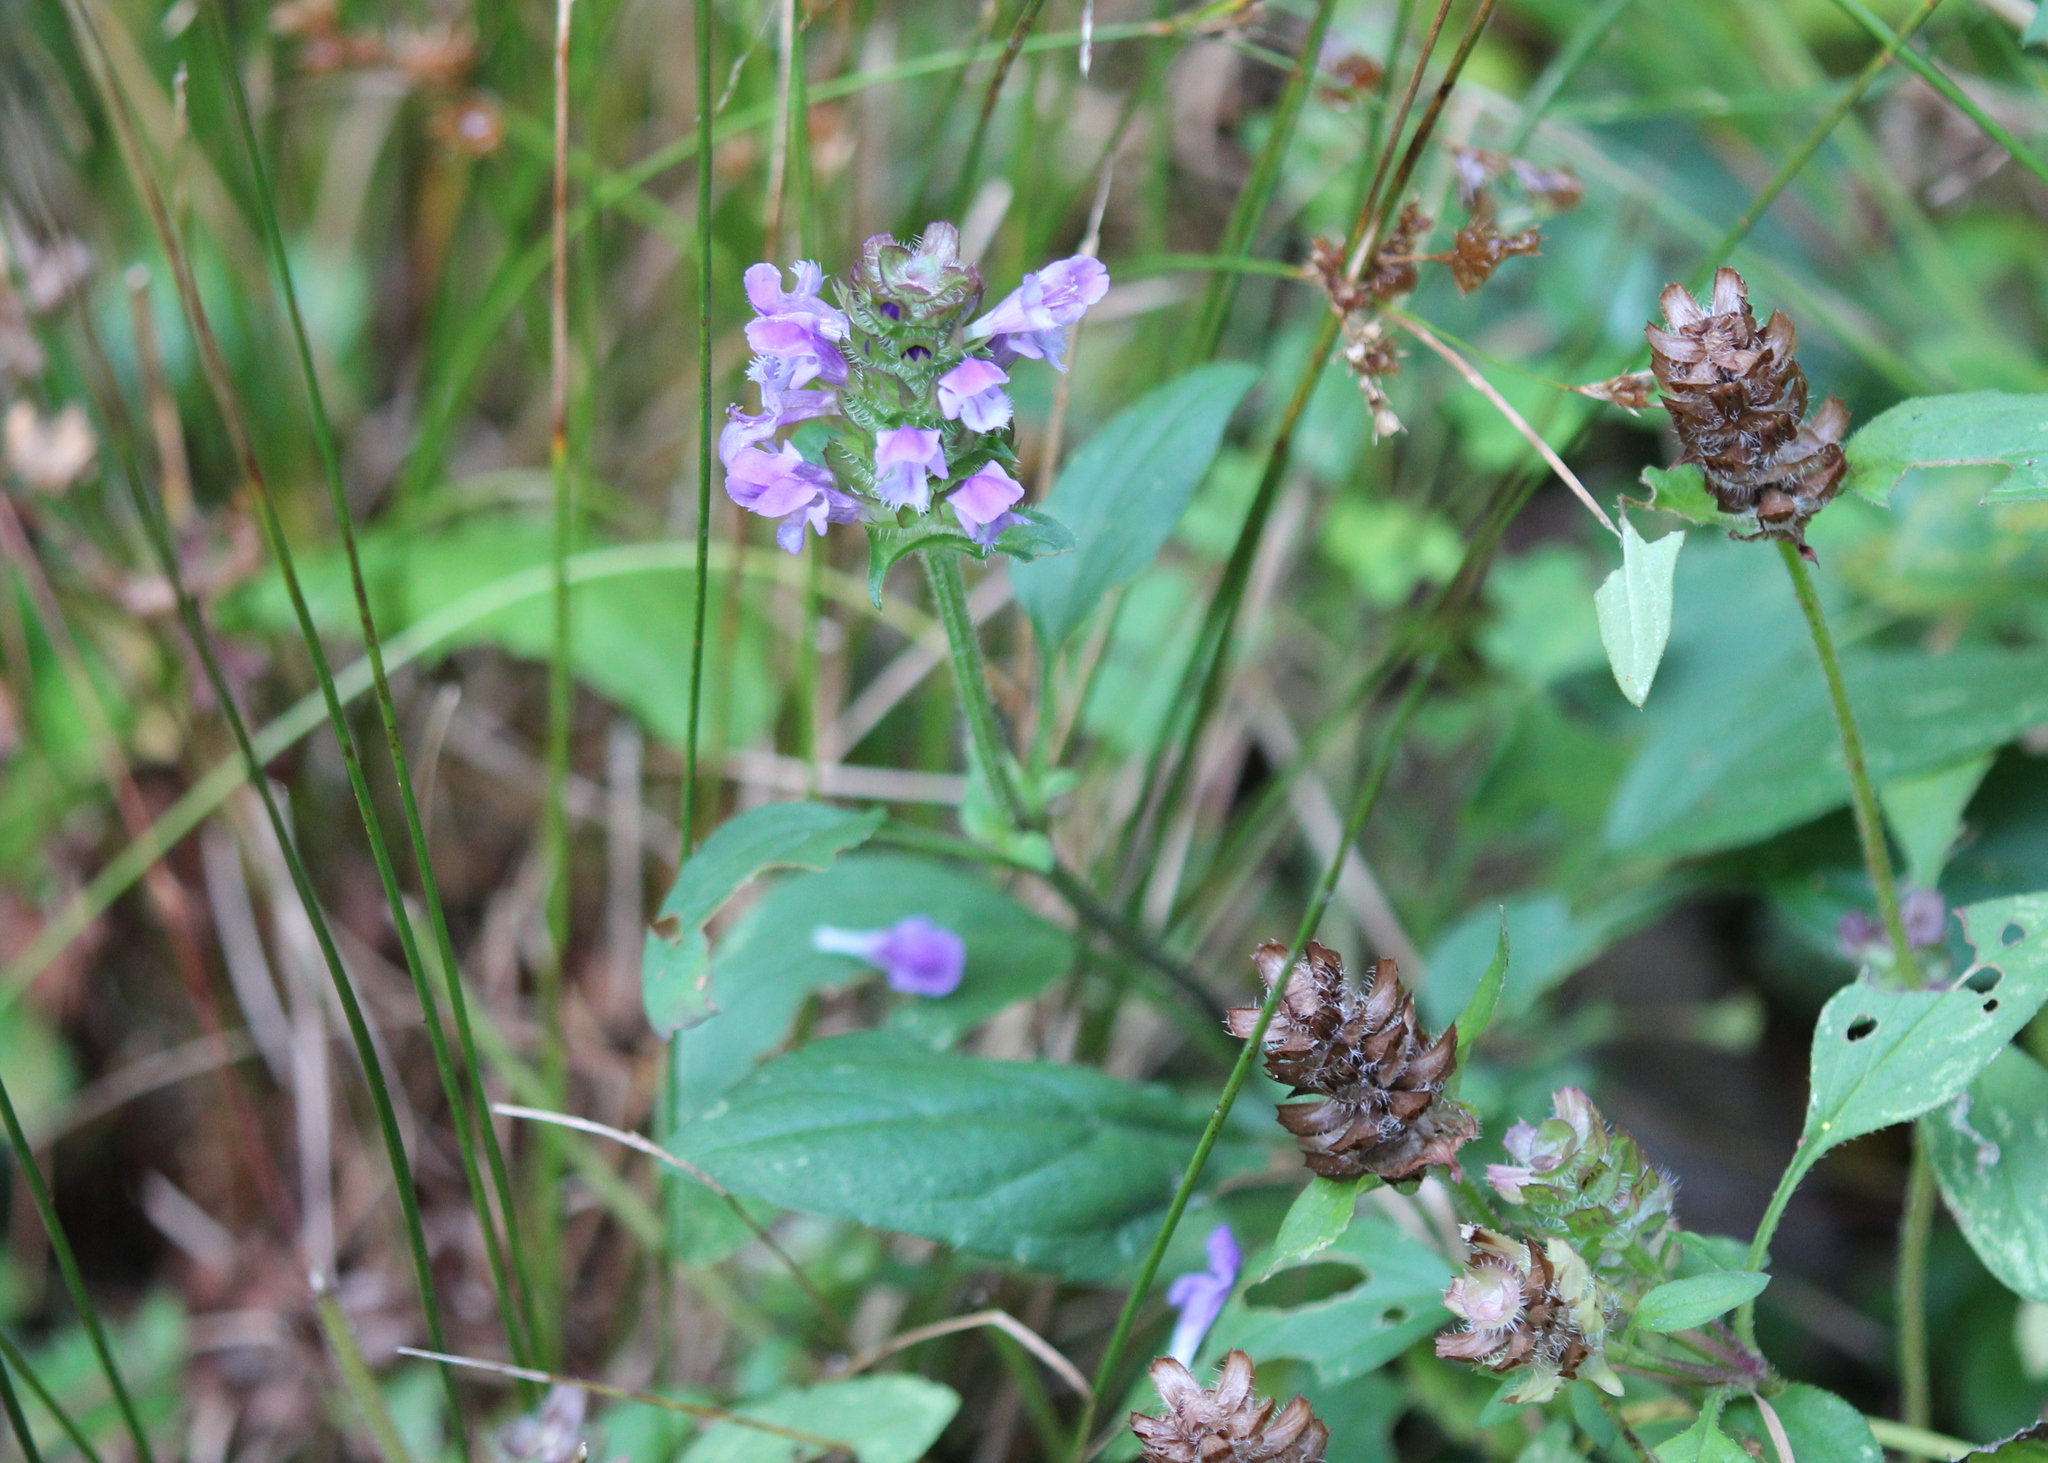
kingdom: Plantae
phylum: Tracheophyta
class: Magnoliopsida
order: Lamiales
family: Lamiaceae
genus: Prunella
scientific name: Prunella vulgaris
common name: Heal-all
